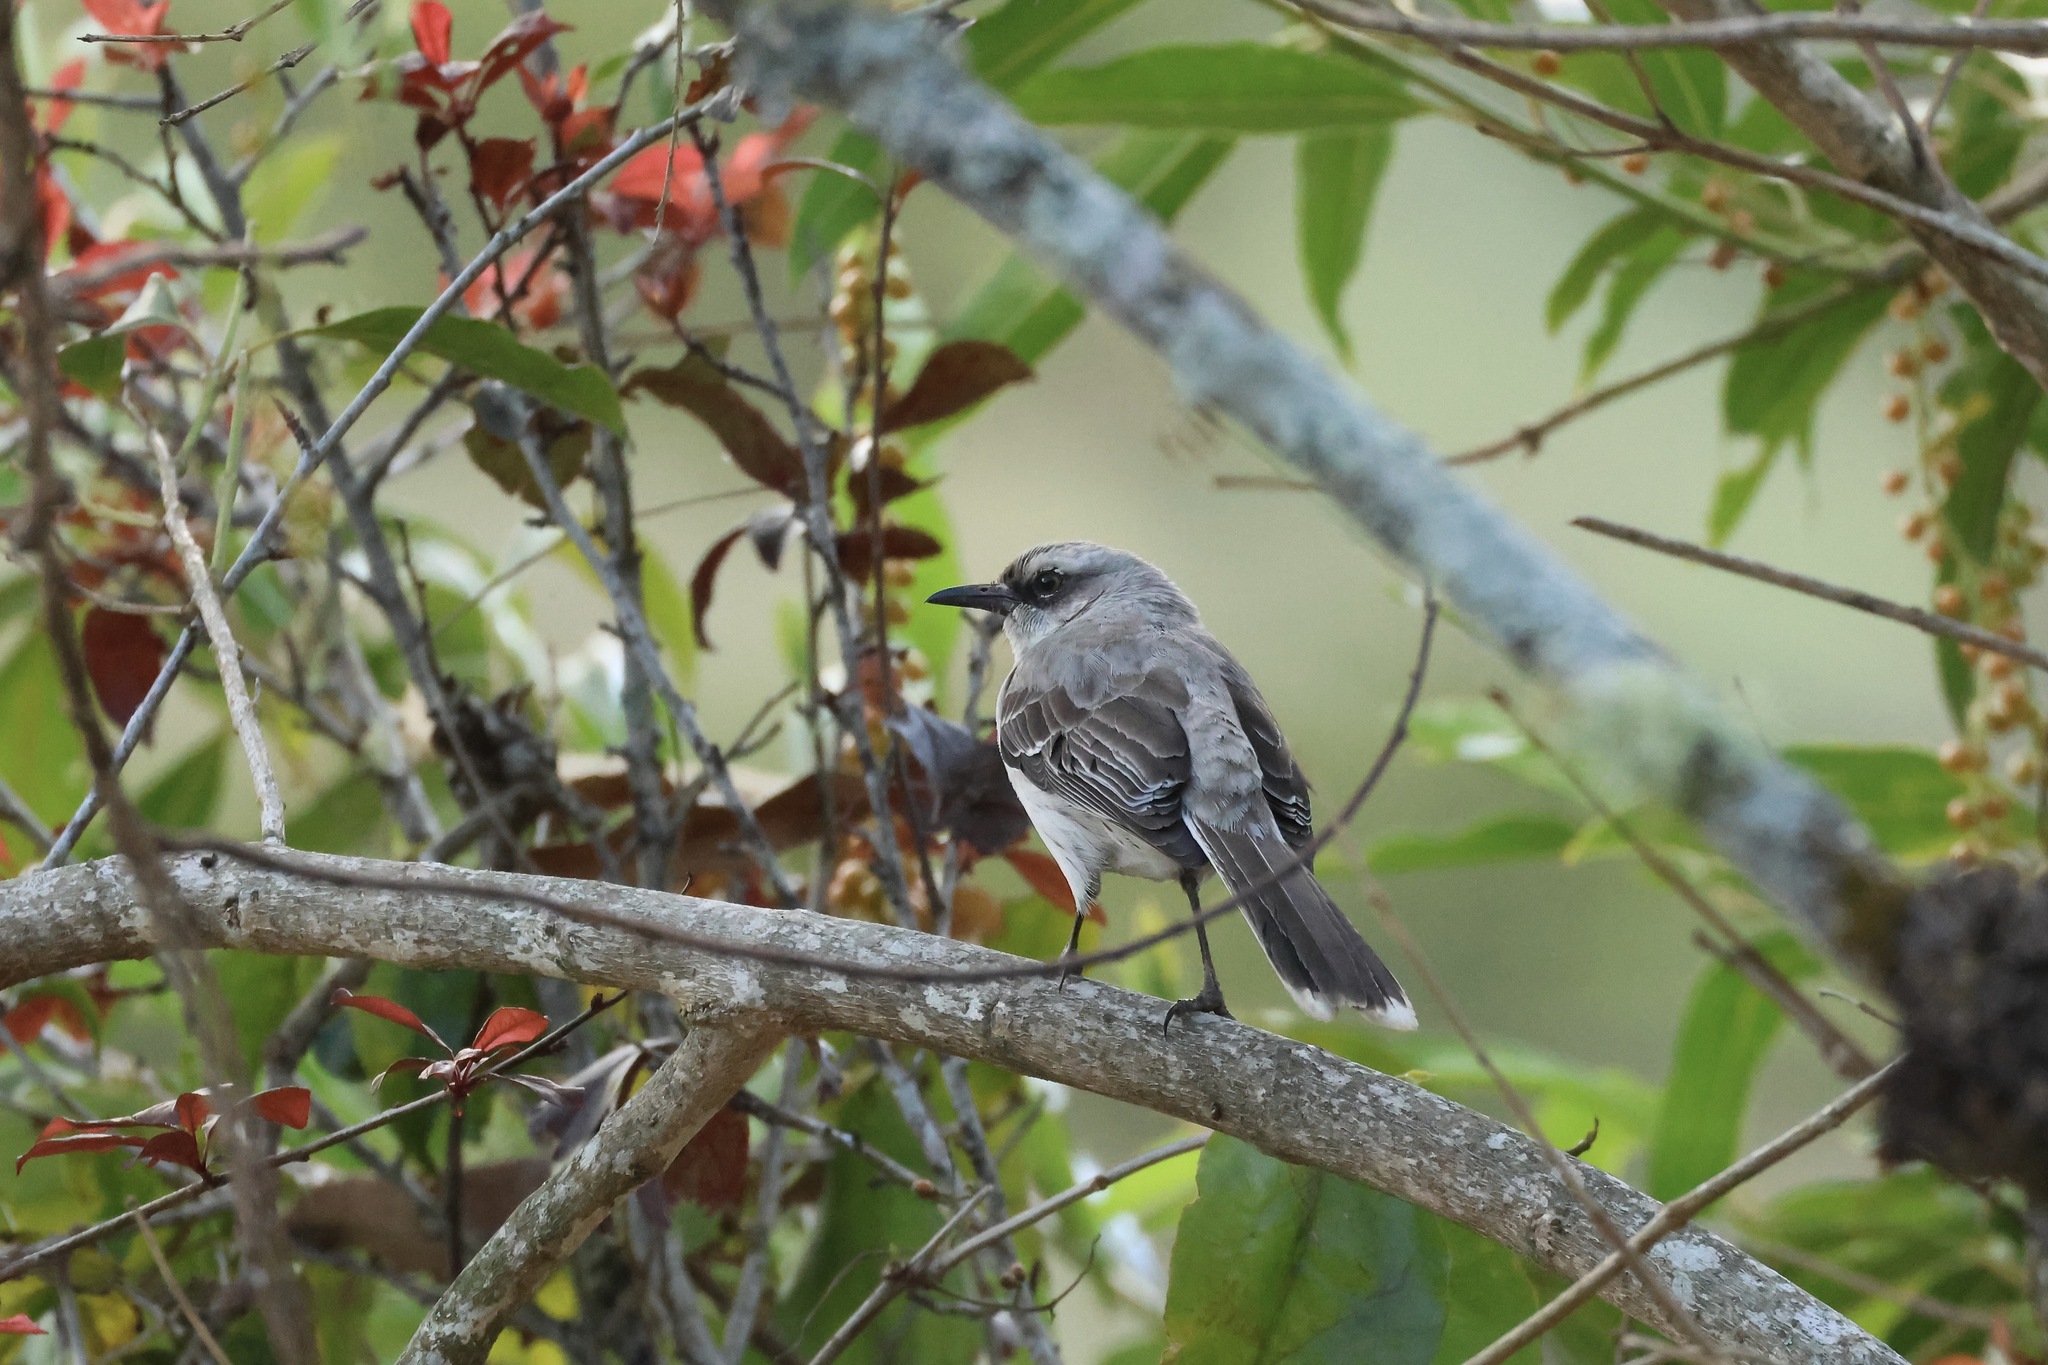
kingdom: Animalia
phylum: Chordata
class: Aves
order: Passeriformes
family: Mimidae
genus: Mimus
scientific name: Mimus gilvus
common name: Tropical mockingbird
